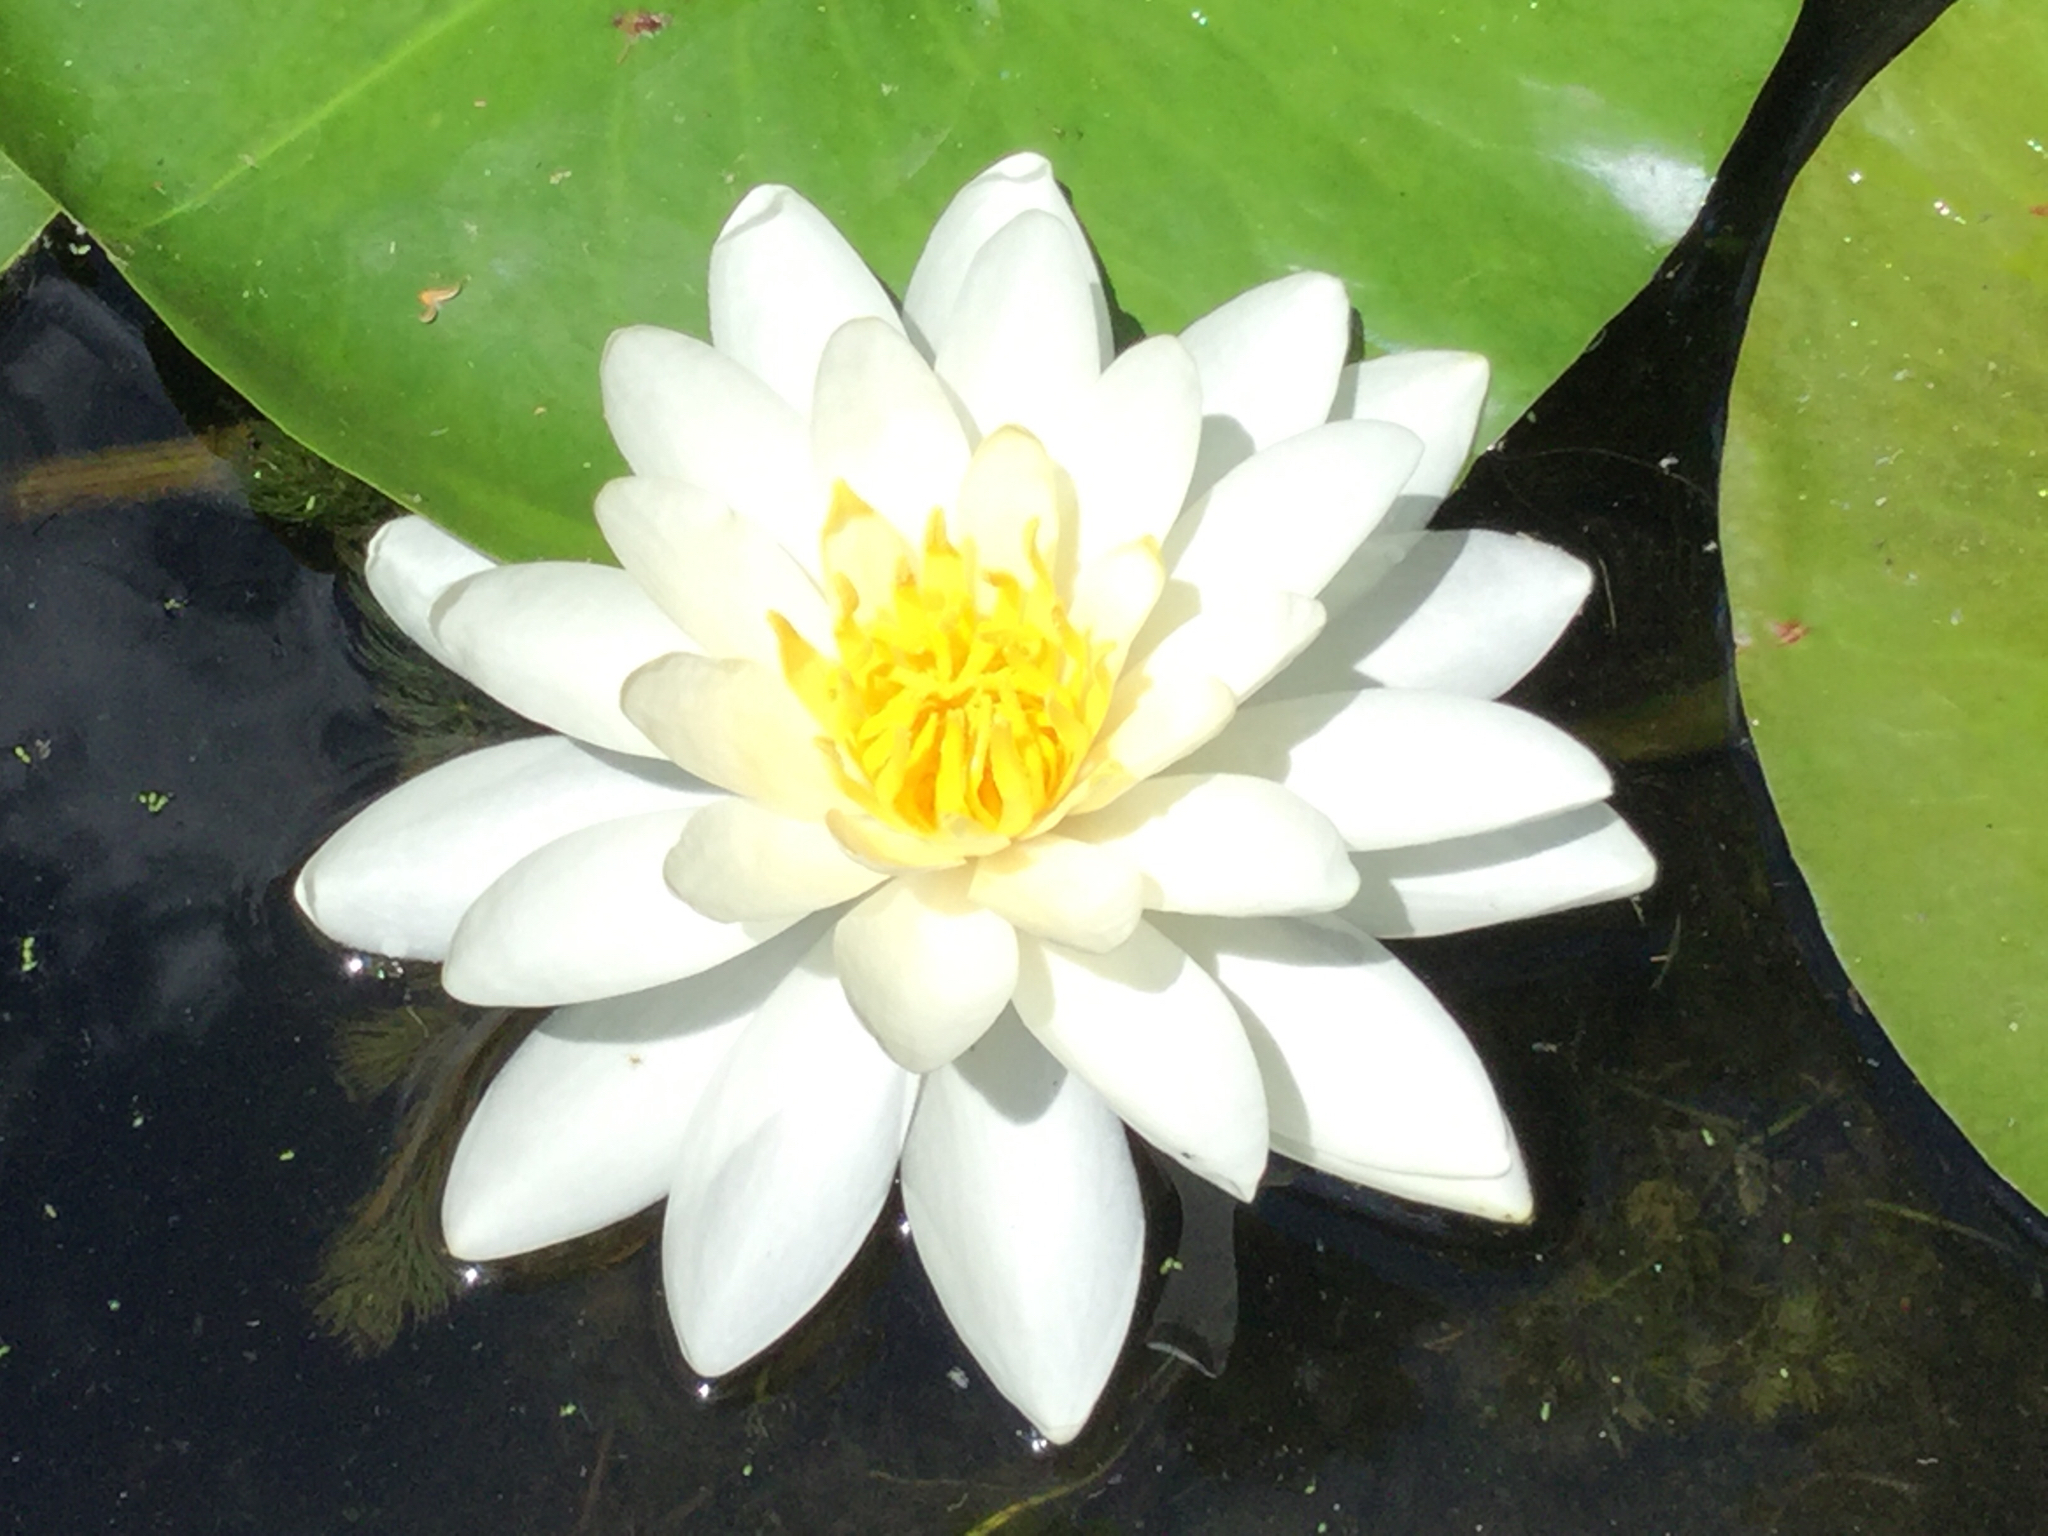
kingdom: Plantae
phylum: Tracheophyta
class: Magnoliopsida
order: Nymphaeales
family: Nymphaeaceae
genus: Nymphaea
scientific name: Nymphaea odorata
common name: Fragrant water-lily
